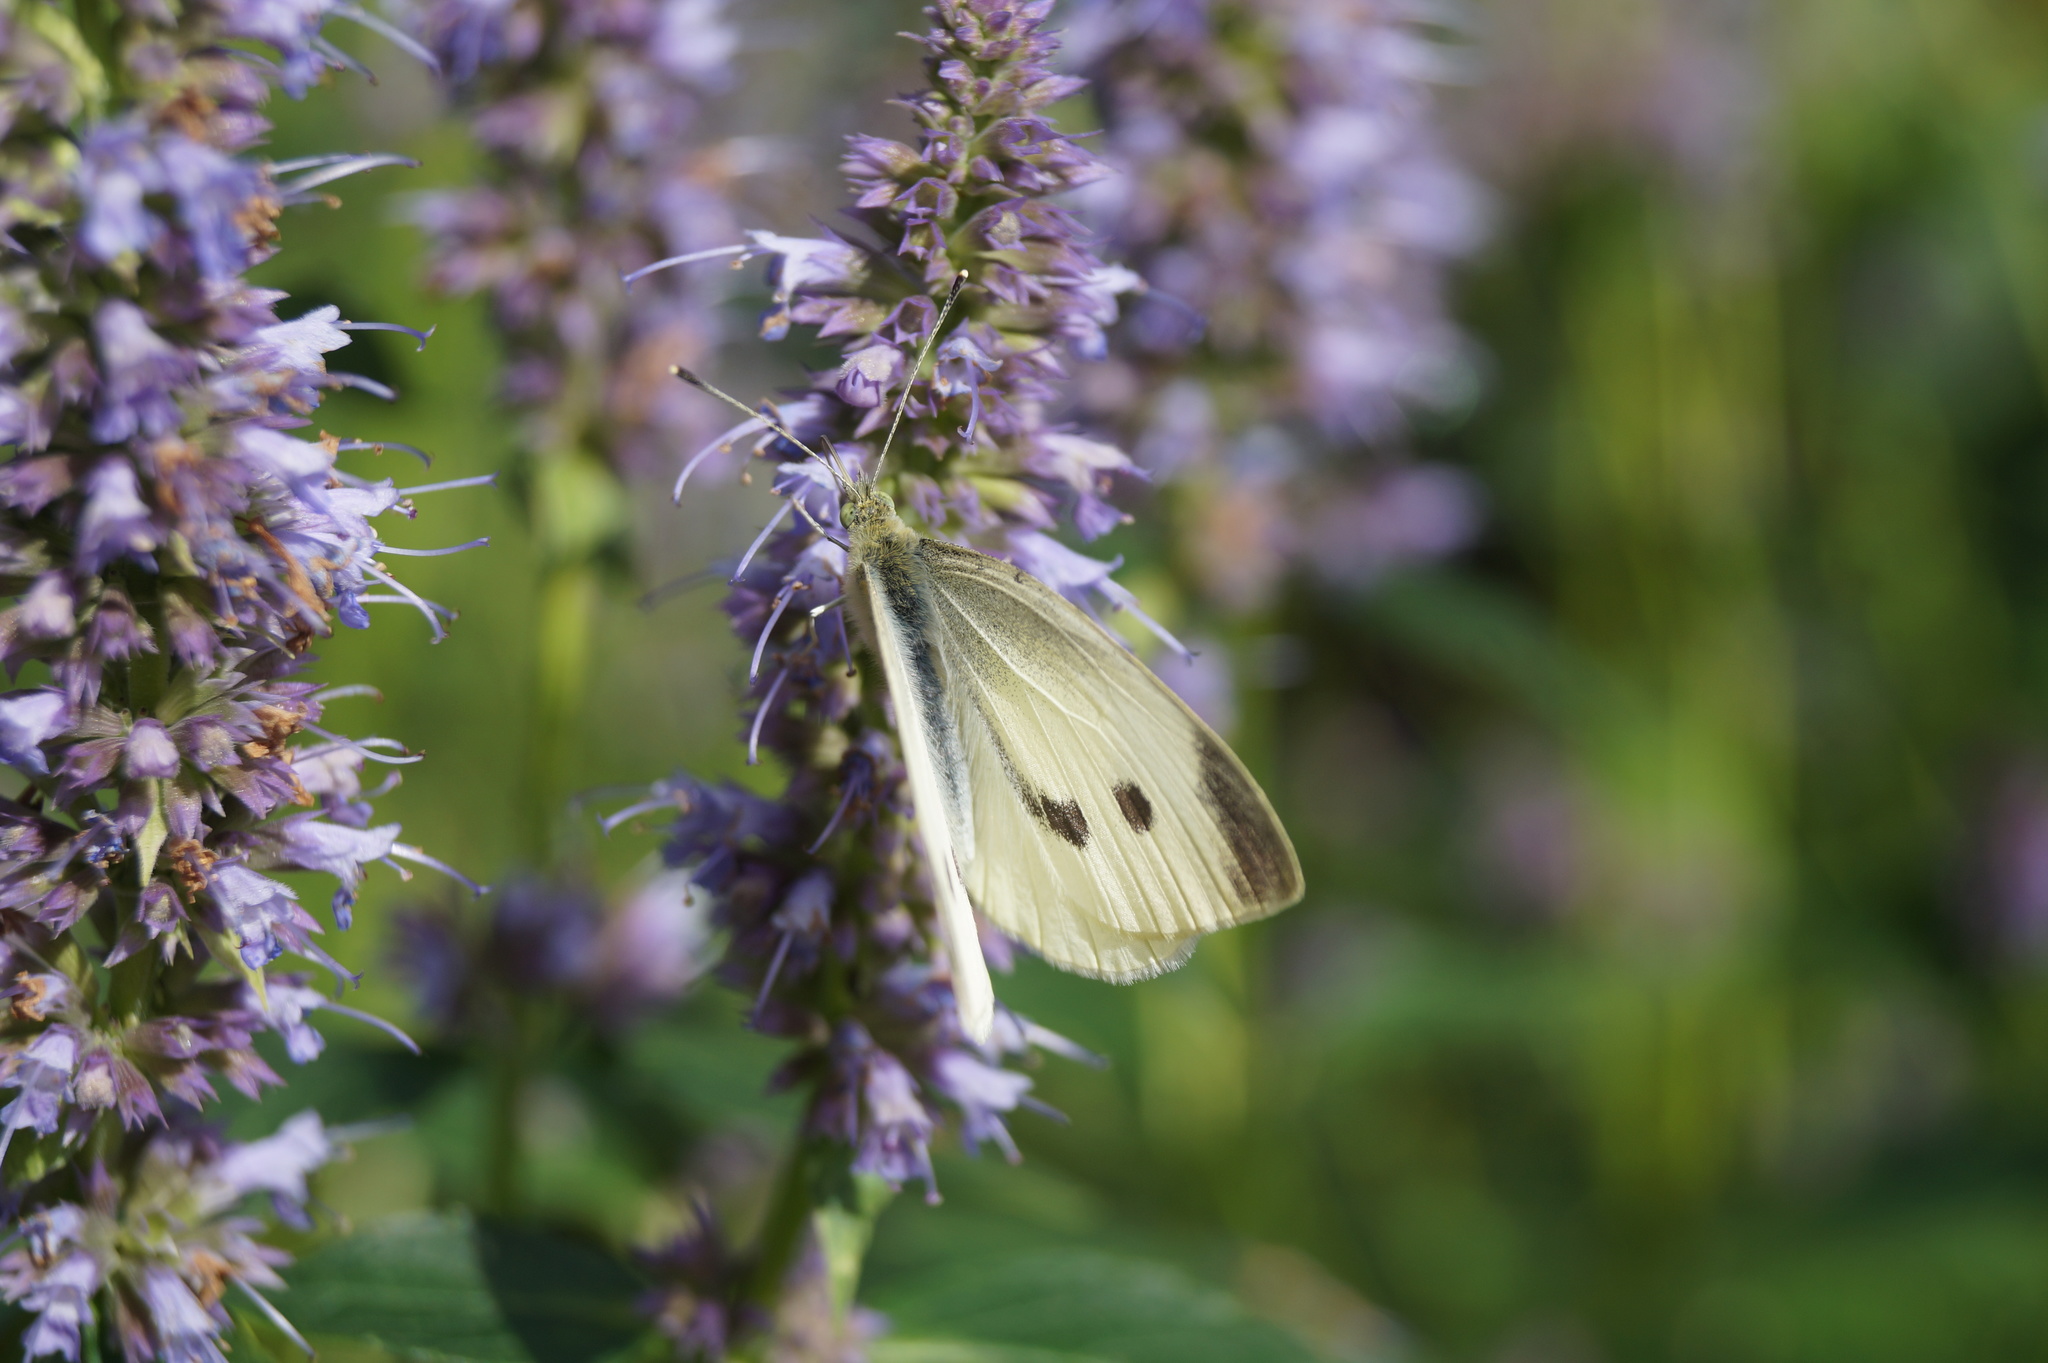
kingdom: Animalia
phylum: Arthropoda
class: Insecta
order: Lepidoptera
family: Pieridae
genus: Pieris
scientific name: Pieris rapae
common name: Small white
